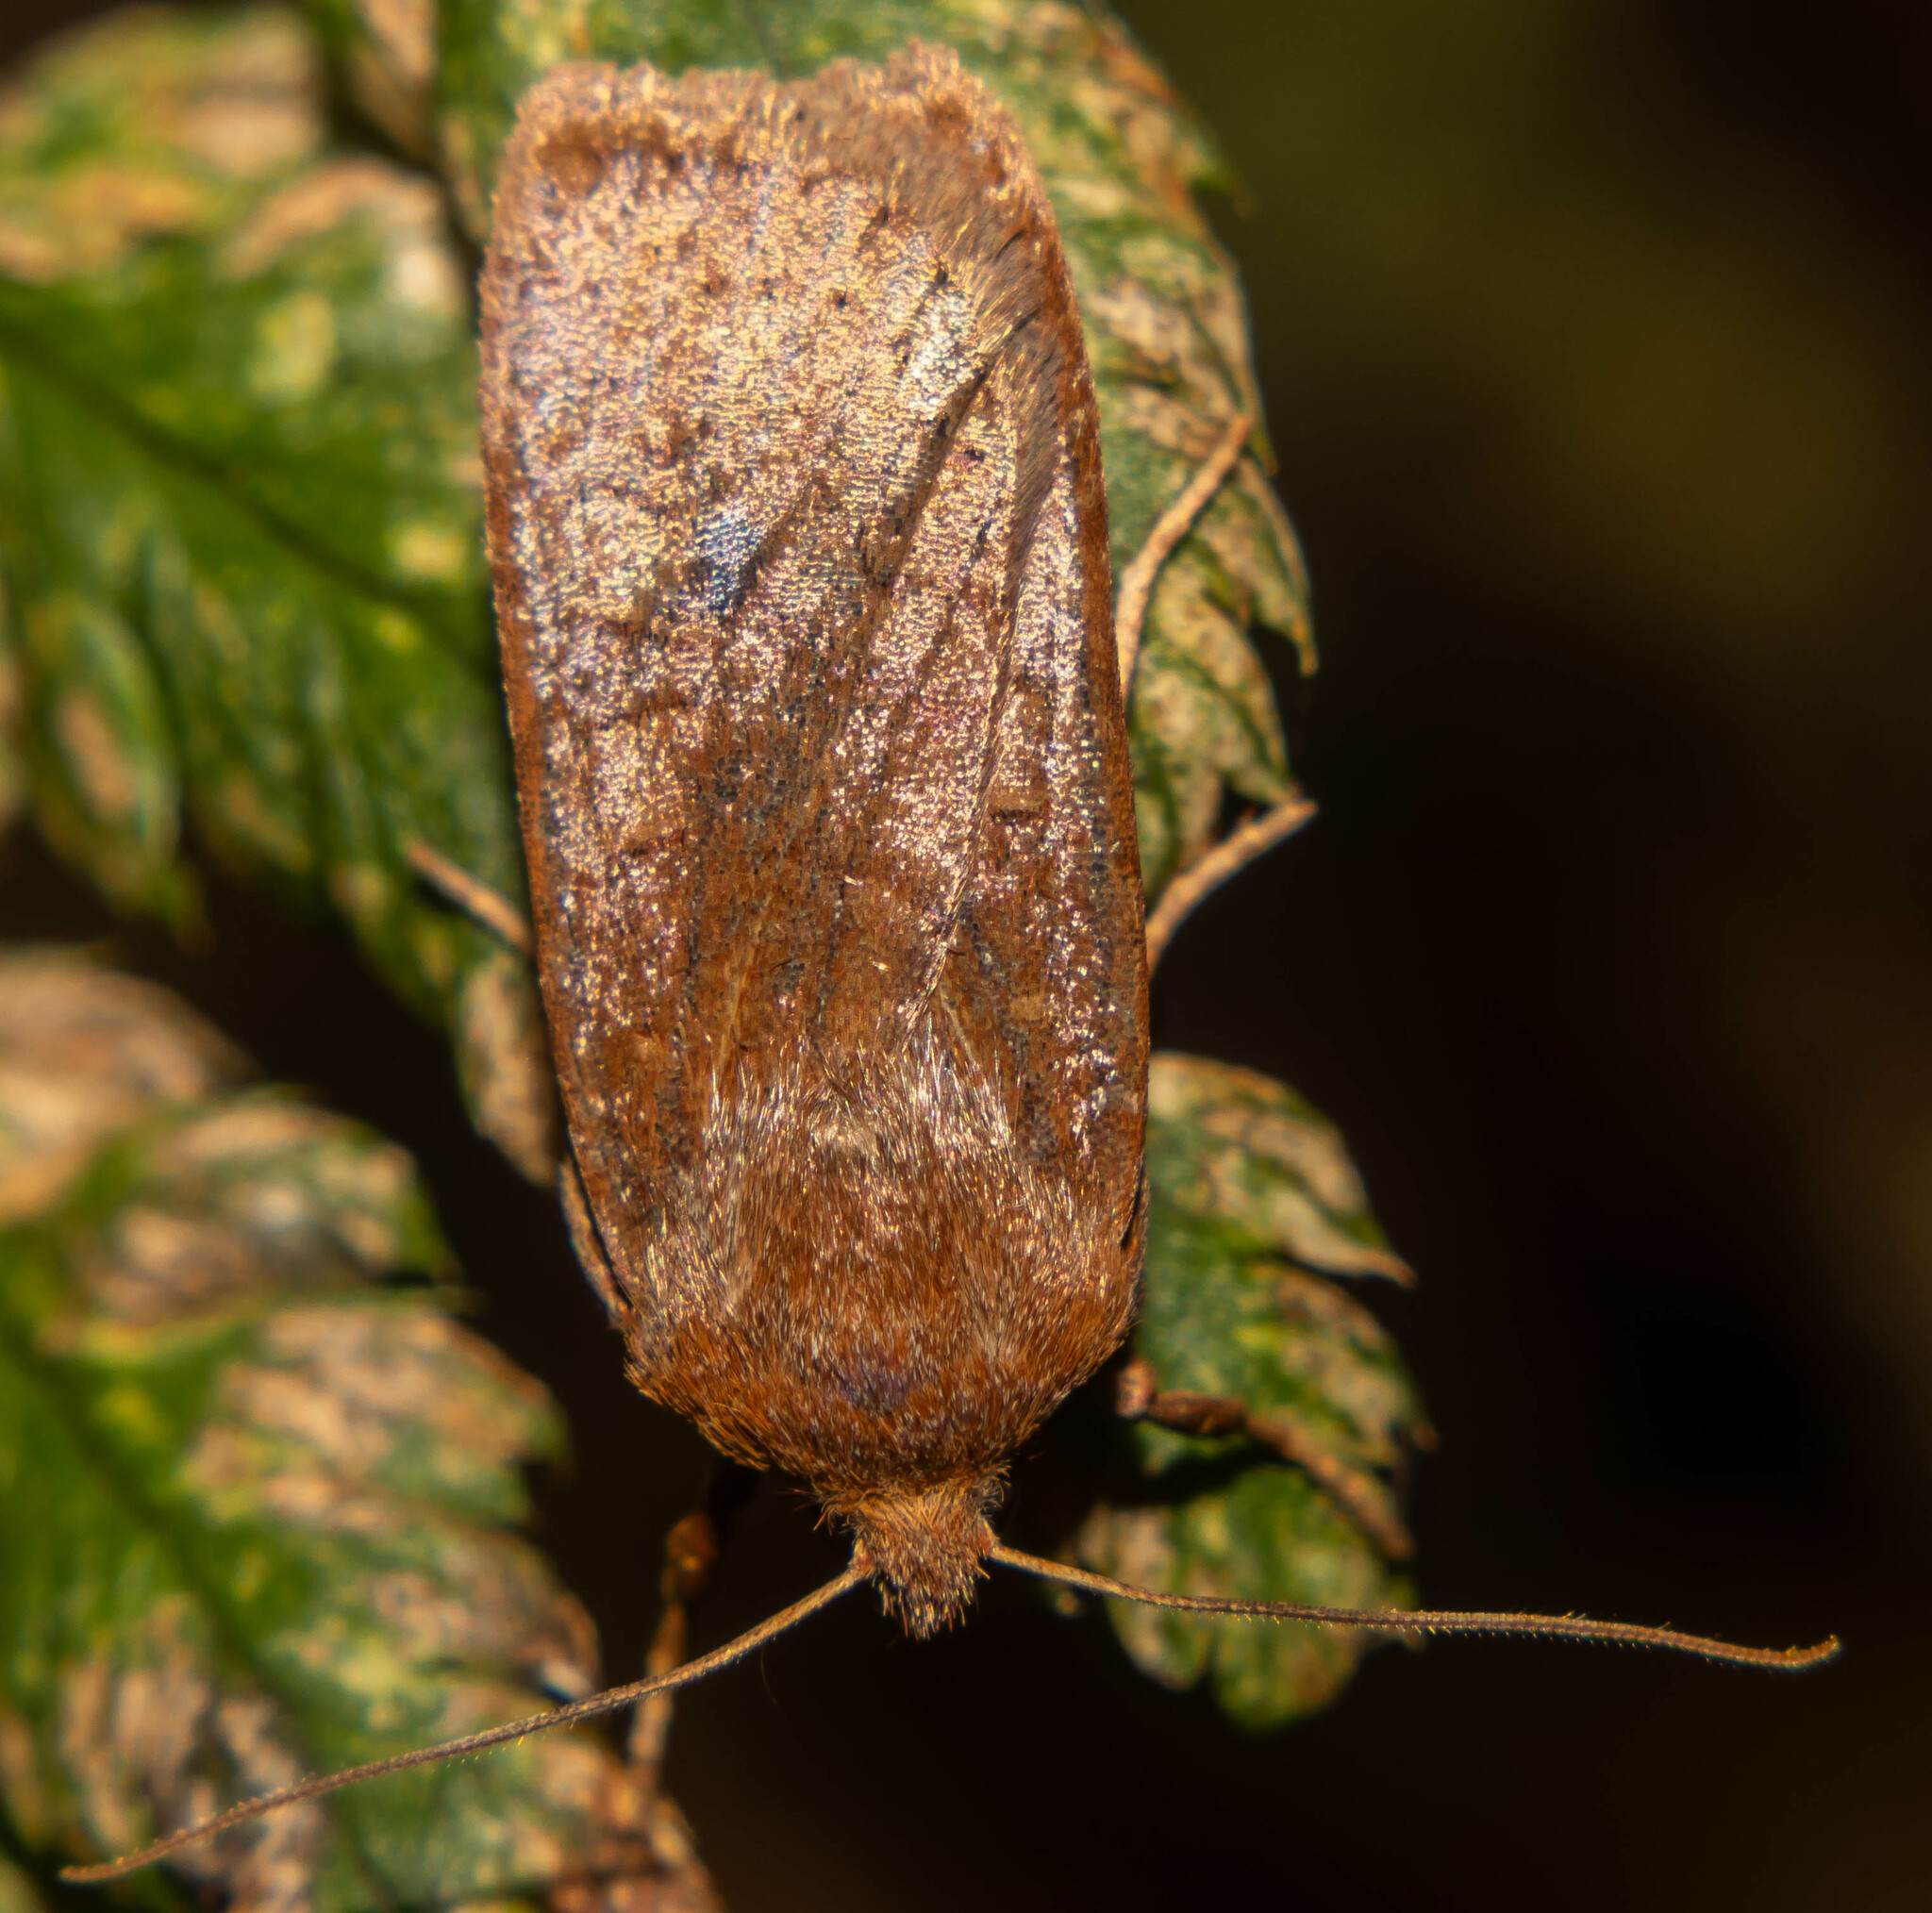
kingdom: Animalia
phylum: Arthropoda
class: Insecta
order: Lepidoptera
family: Noctuidae
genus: Conistra
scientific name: Conistra vaccinii
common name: Chestnut
